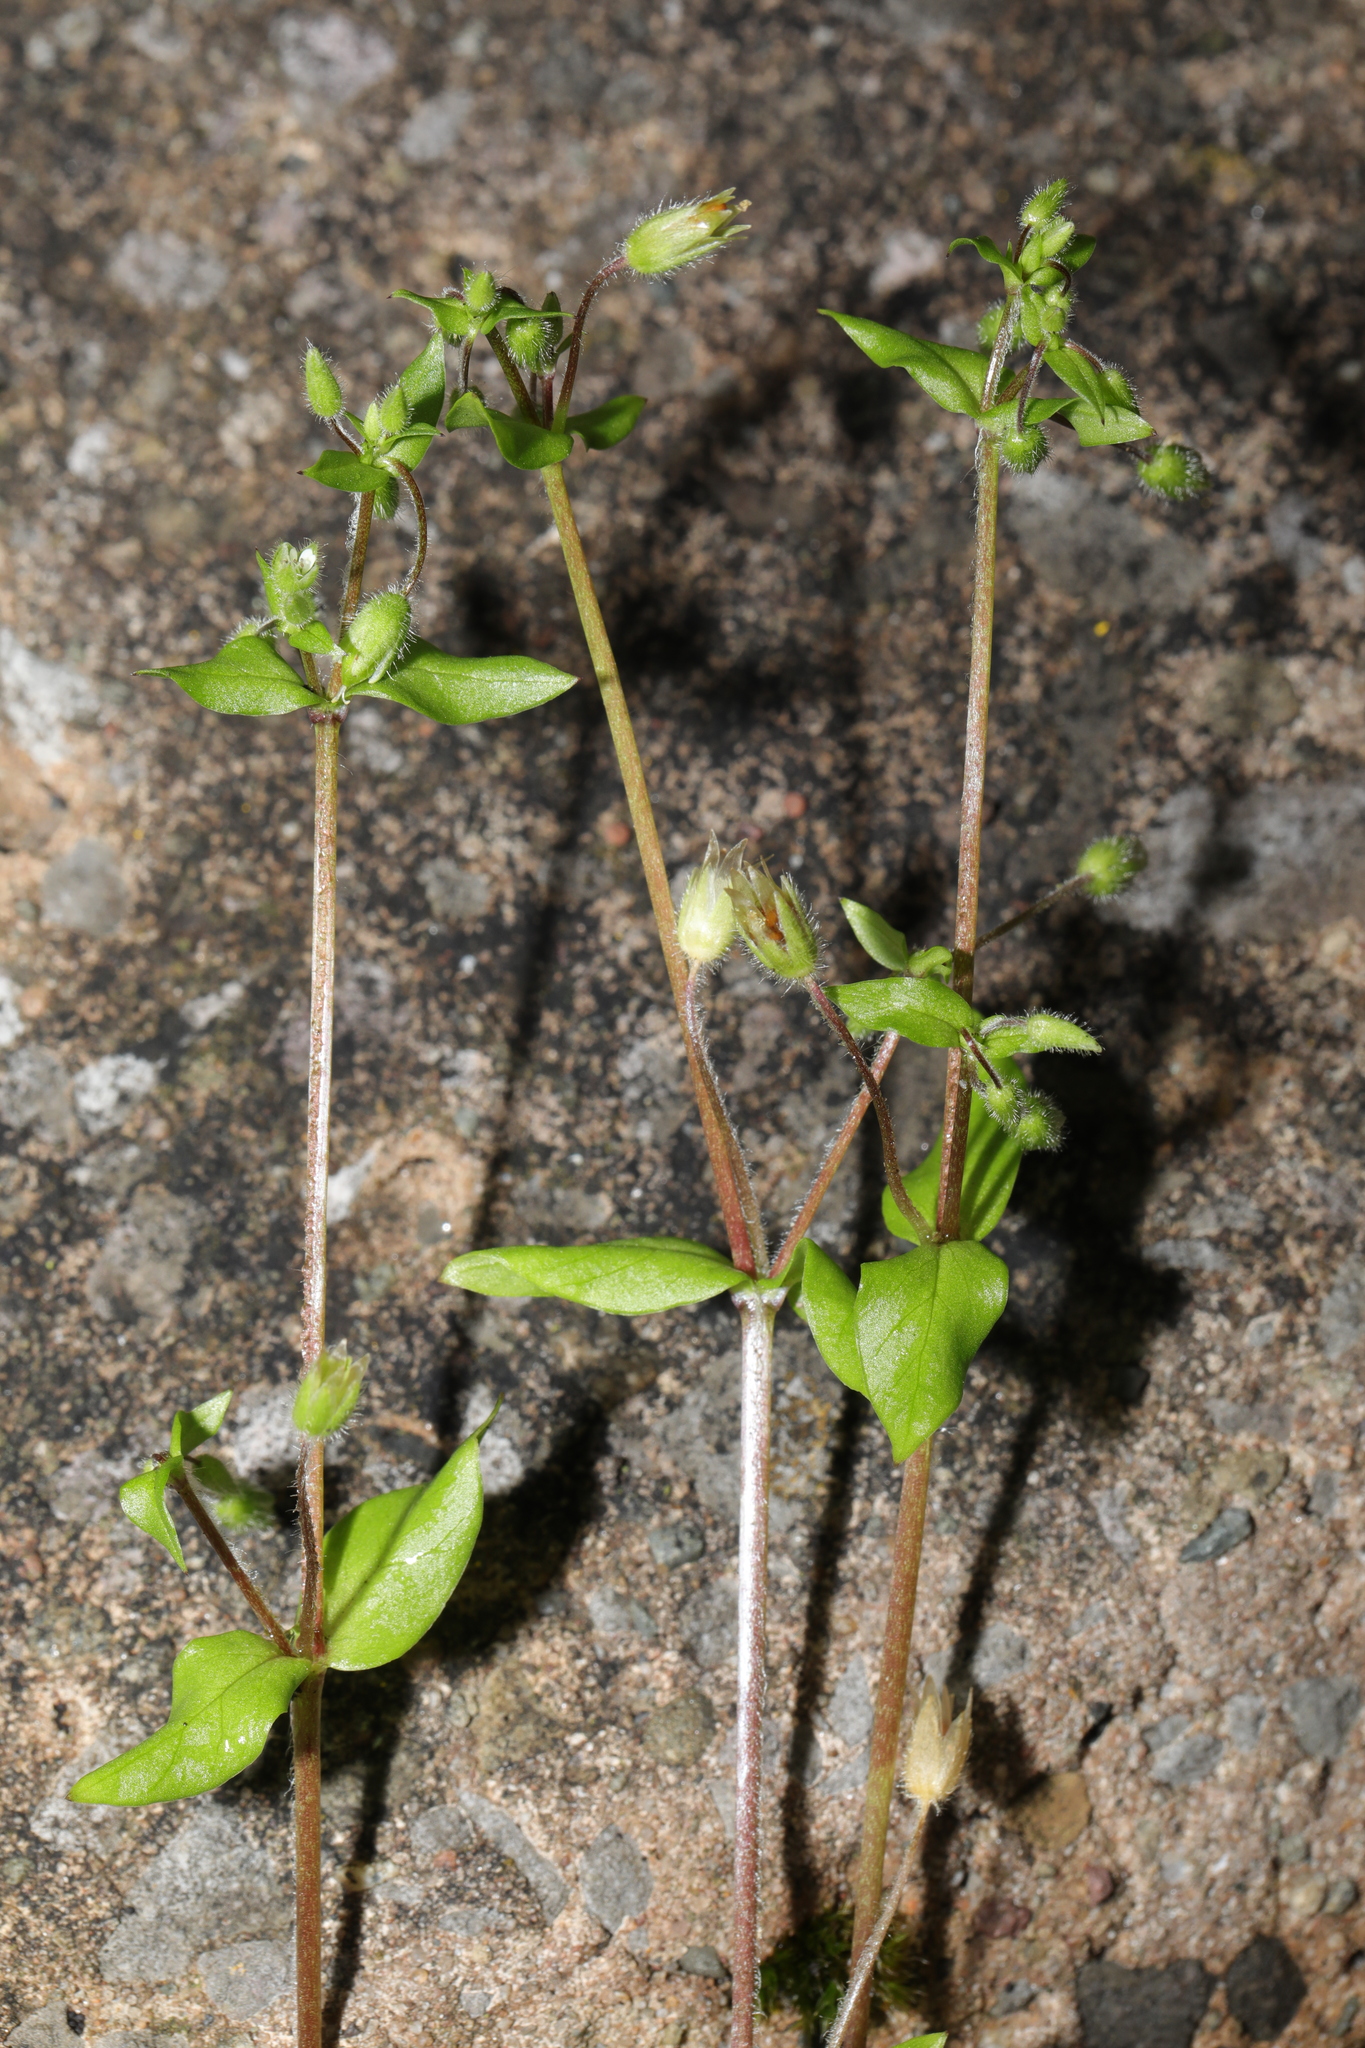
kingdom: Plantae
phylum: Tracheophyta
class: Magnoliopsida
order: Caryophyllales
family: Caryophyllaceae
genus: Stellaria
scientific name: Stellaria media
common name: Common chickweed
